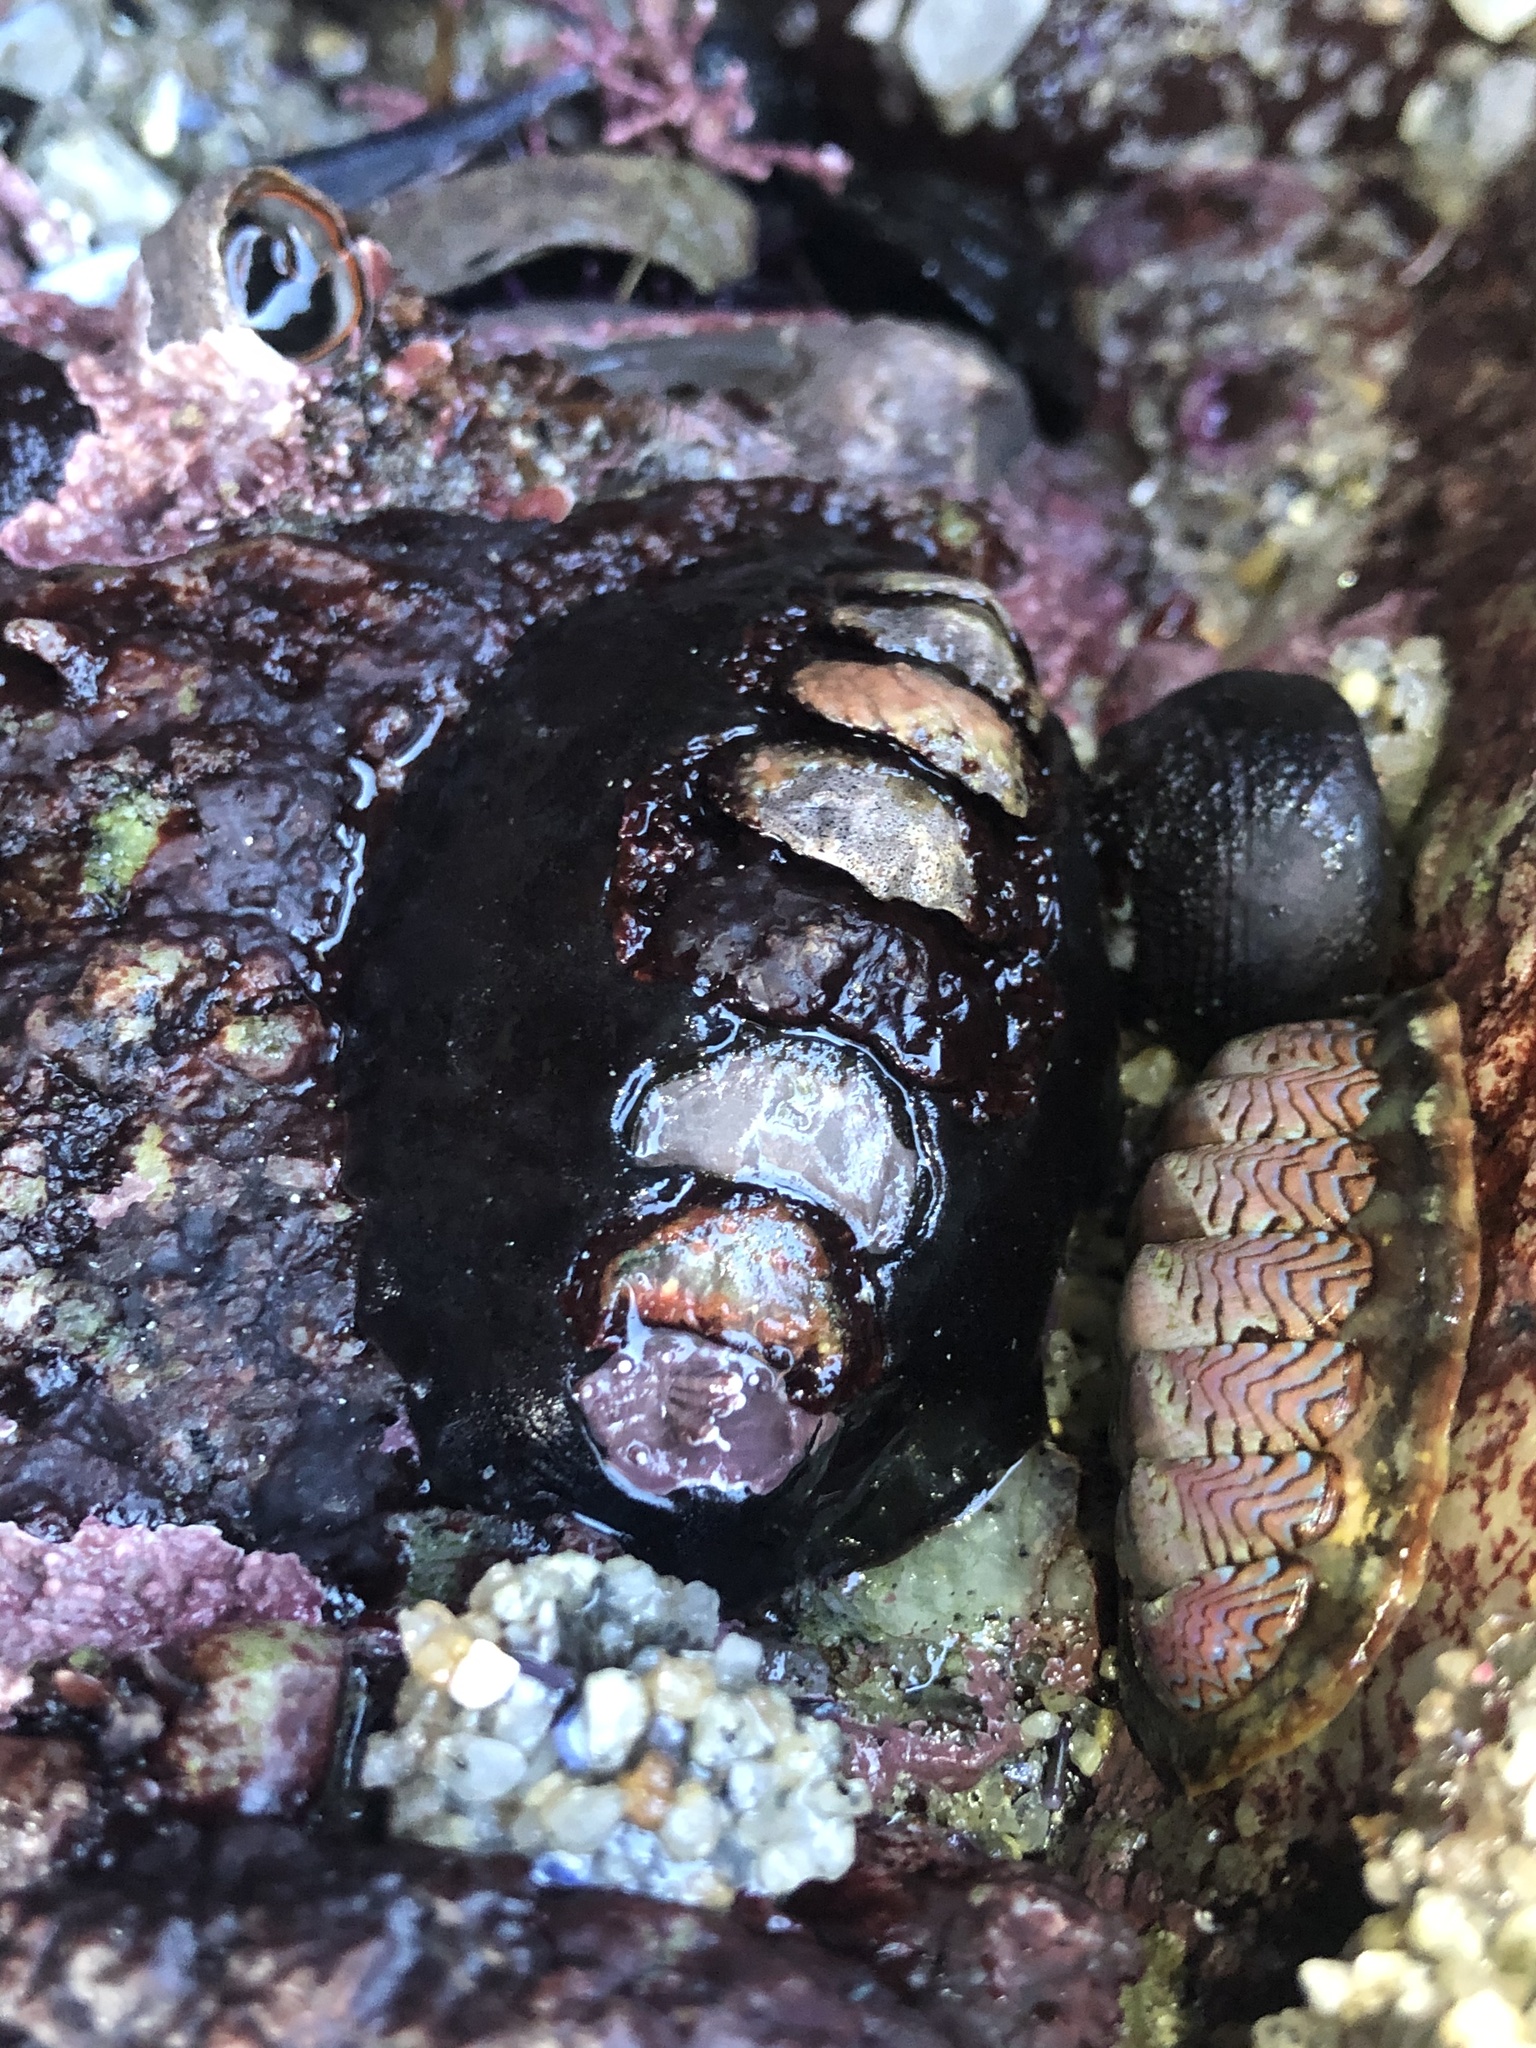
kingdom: Animalia
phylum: Mollusca
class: Polyplacophora
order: Chitonida
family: Mopaliidae
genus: Katharina
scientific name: Katharina tunicata
